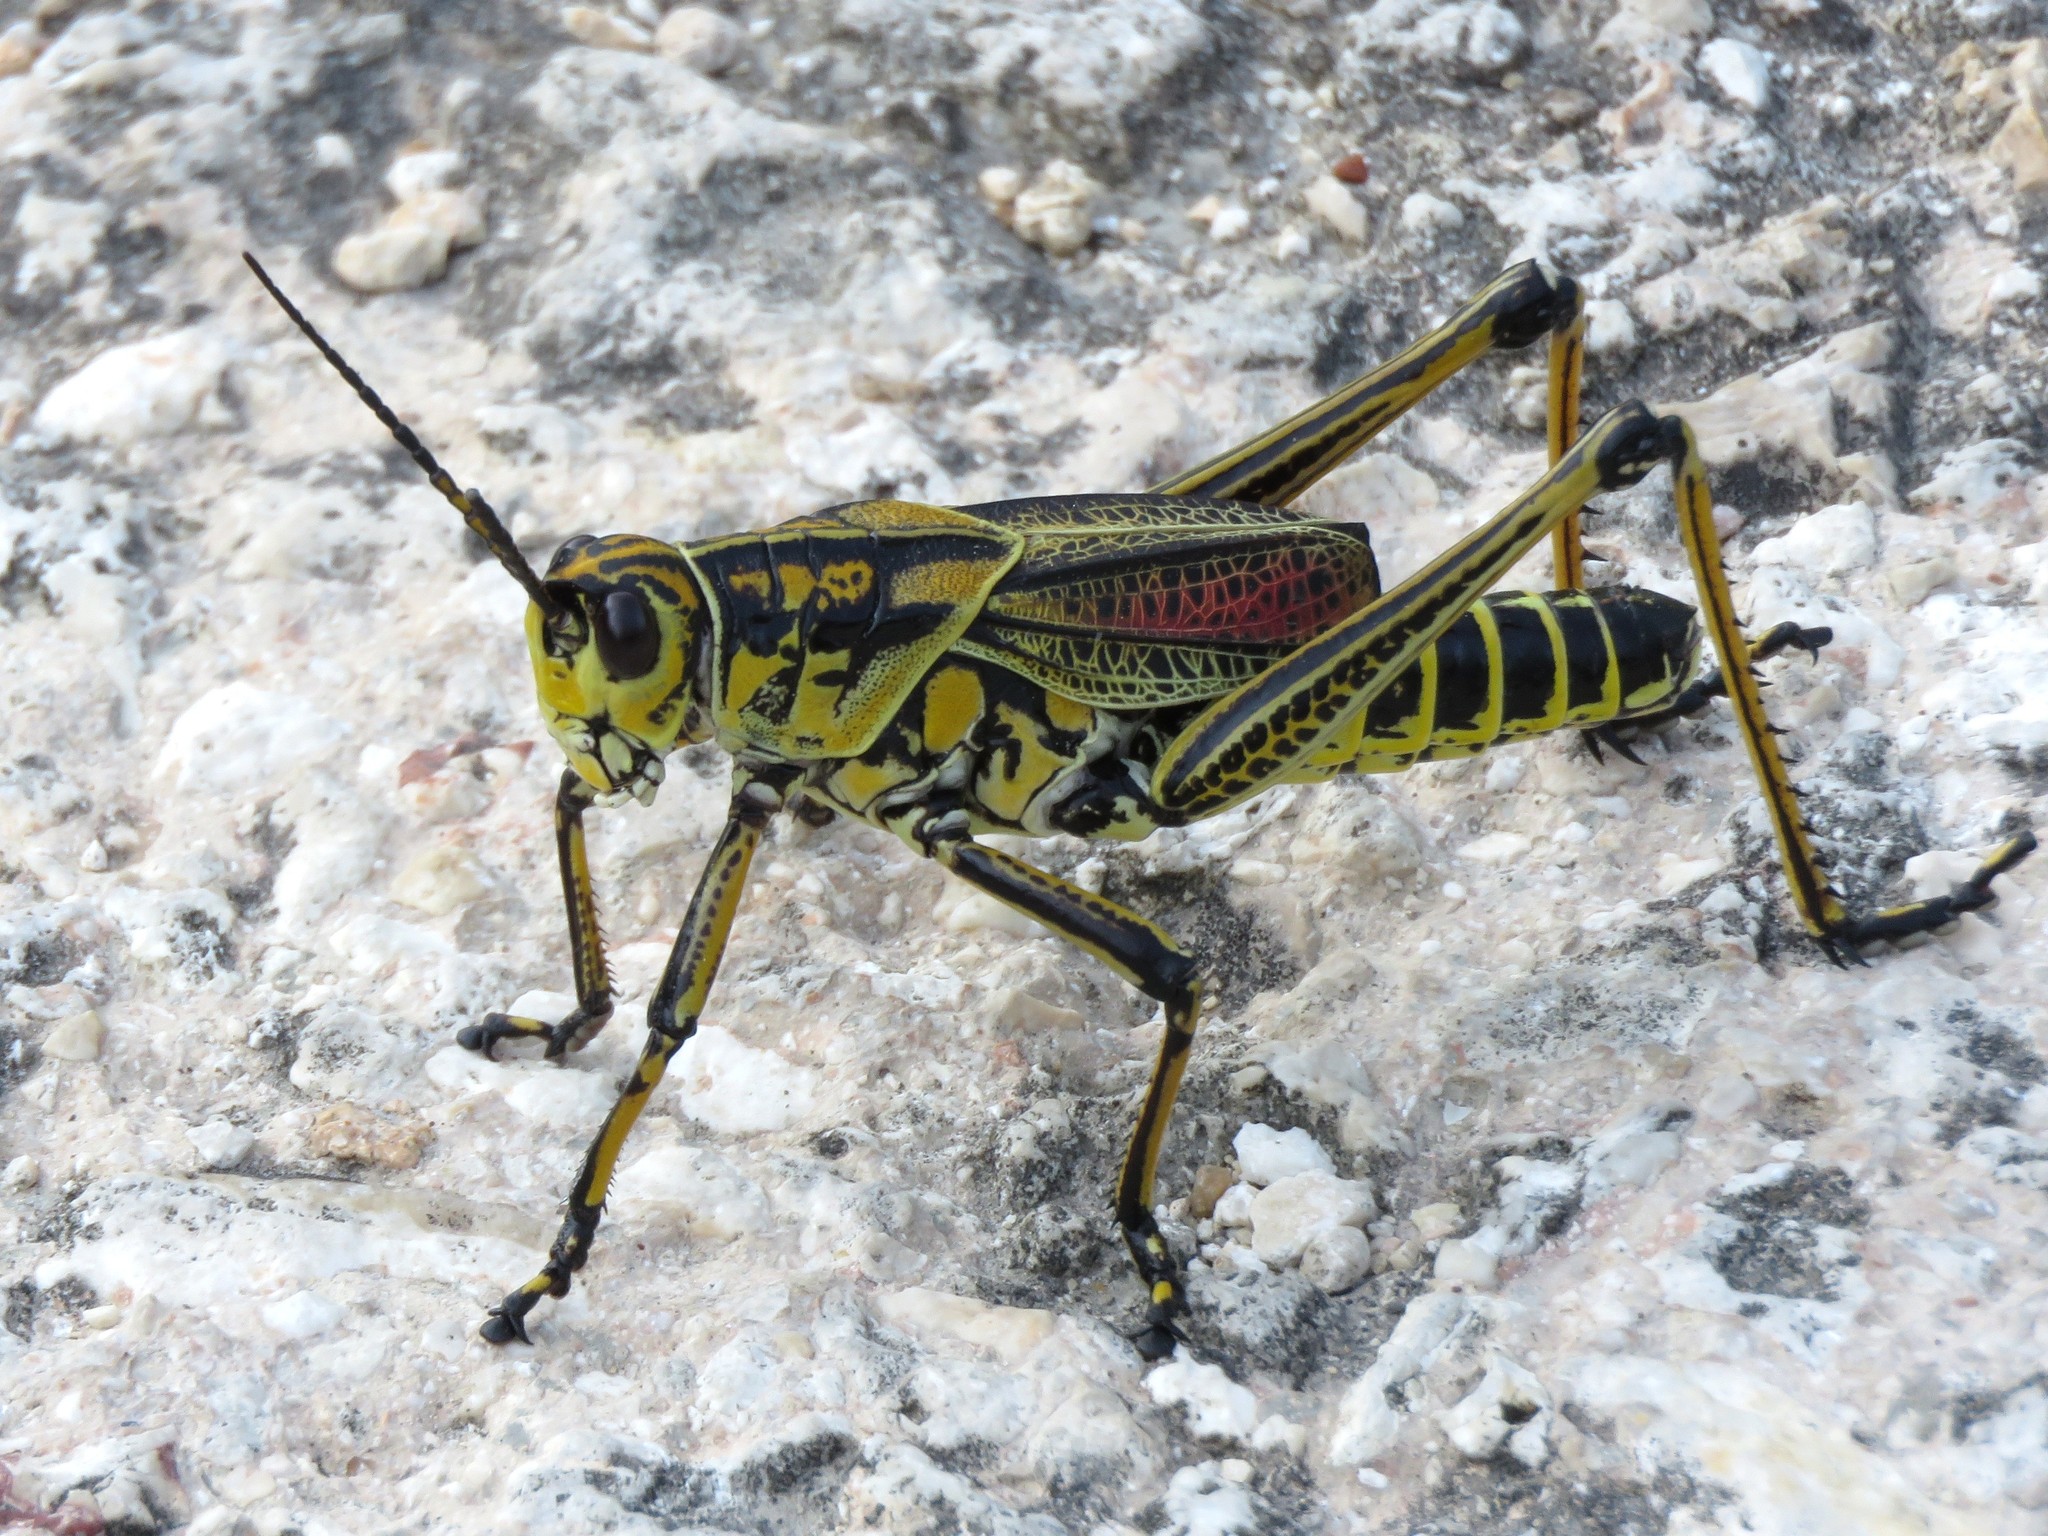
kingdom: Animalia
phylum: Arthropoda
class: Insecta
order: Orthoptera
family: Romaleidae
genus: Romalea
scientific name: Romalea microptera
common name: Eastern lubber grasshopper
